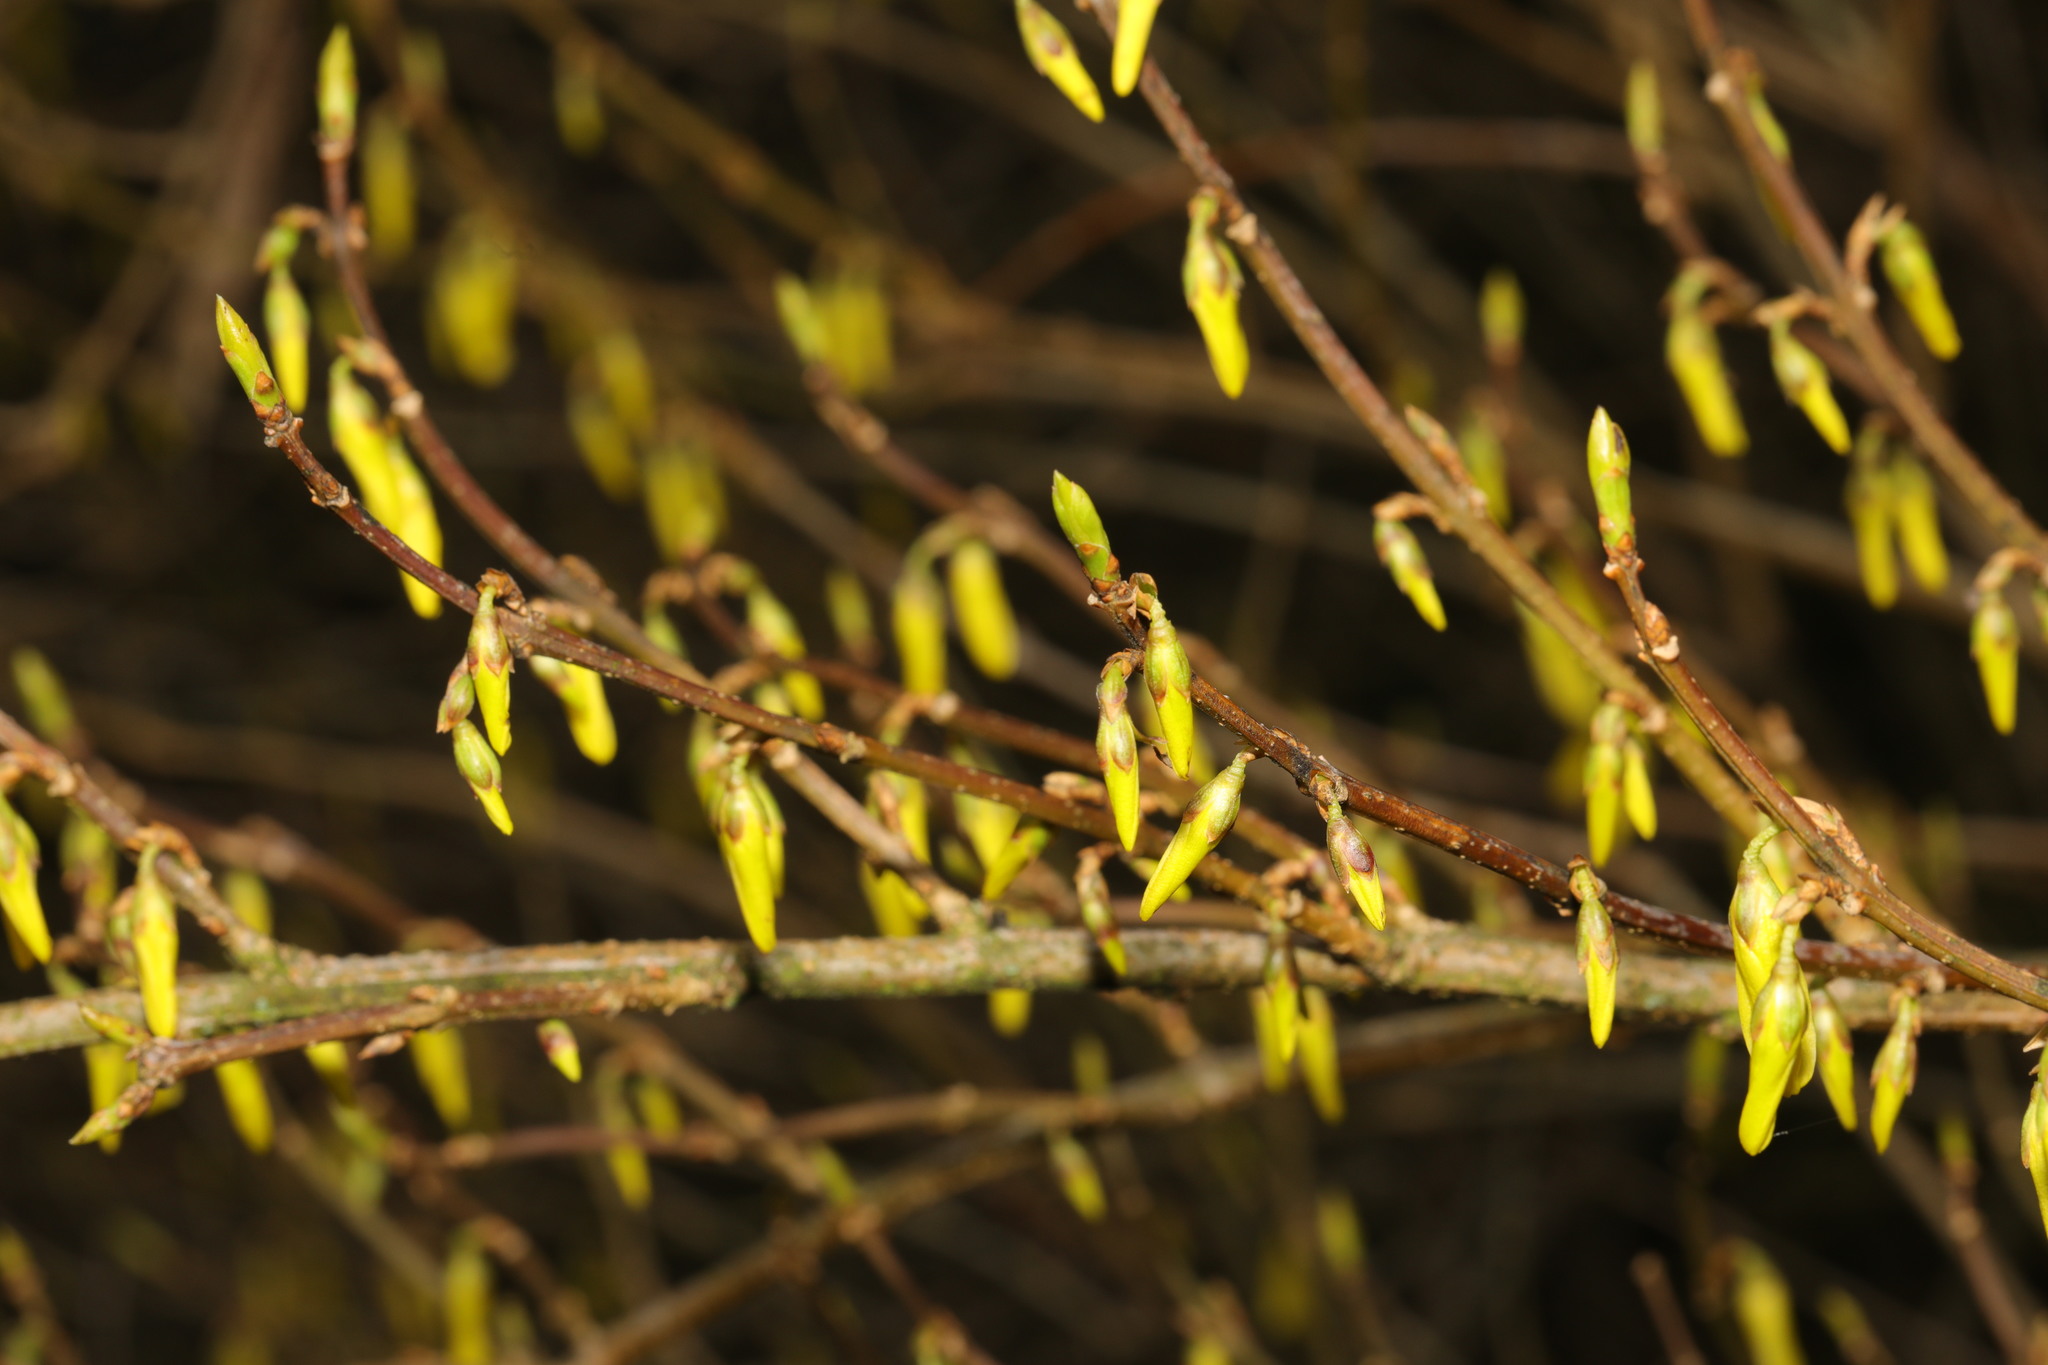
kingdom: Plantae
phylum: Tracheophyta
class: Magnoliopsida
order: Lamiales
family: Oleaceae
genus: Forsythia
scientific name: Forsythia intermedia
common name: Forsythia
